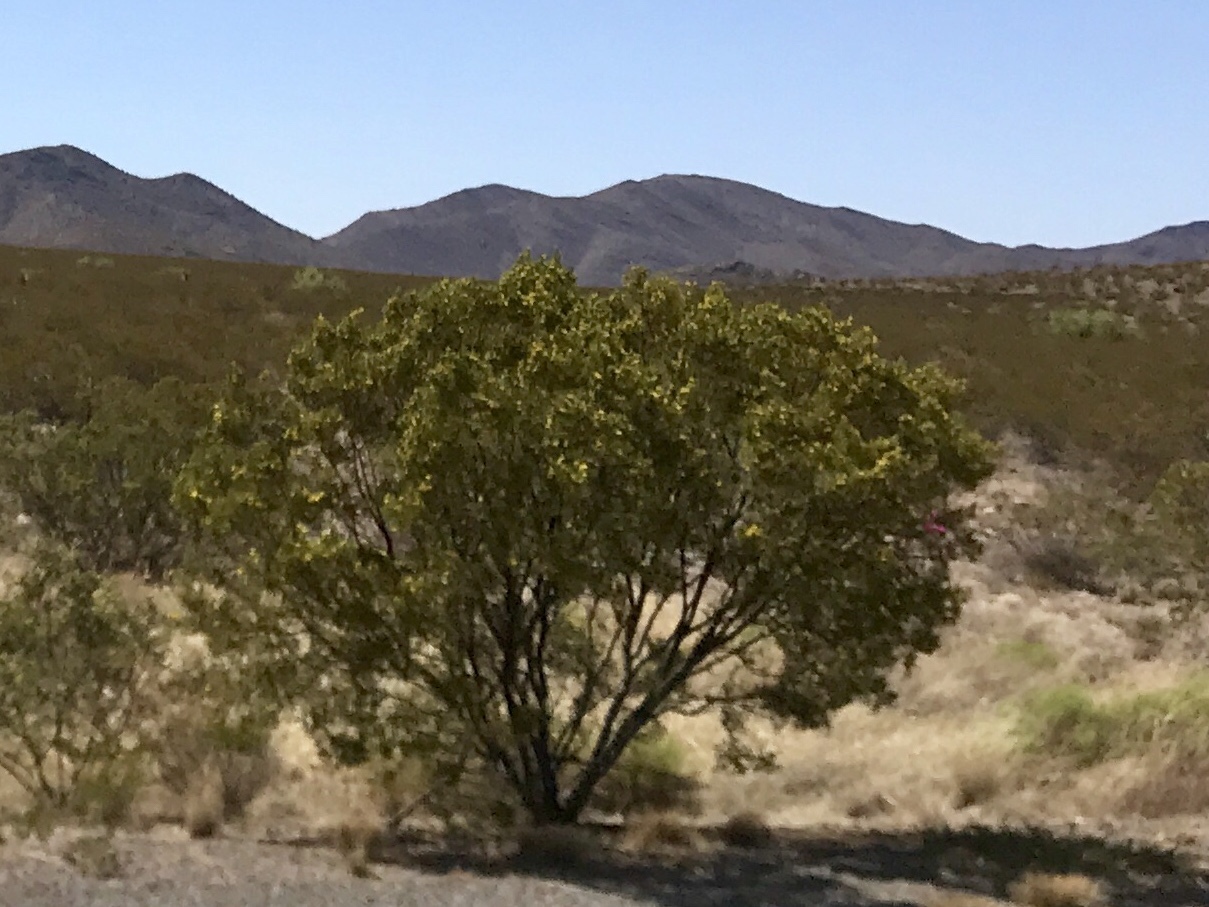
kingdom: Plantae
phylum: Tracheophyta
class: Magnoliopsida
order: Zygophyllales
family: Zygophyllaceae
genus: Larrea
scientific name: Larrea tridentata
